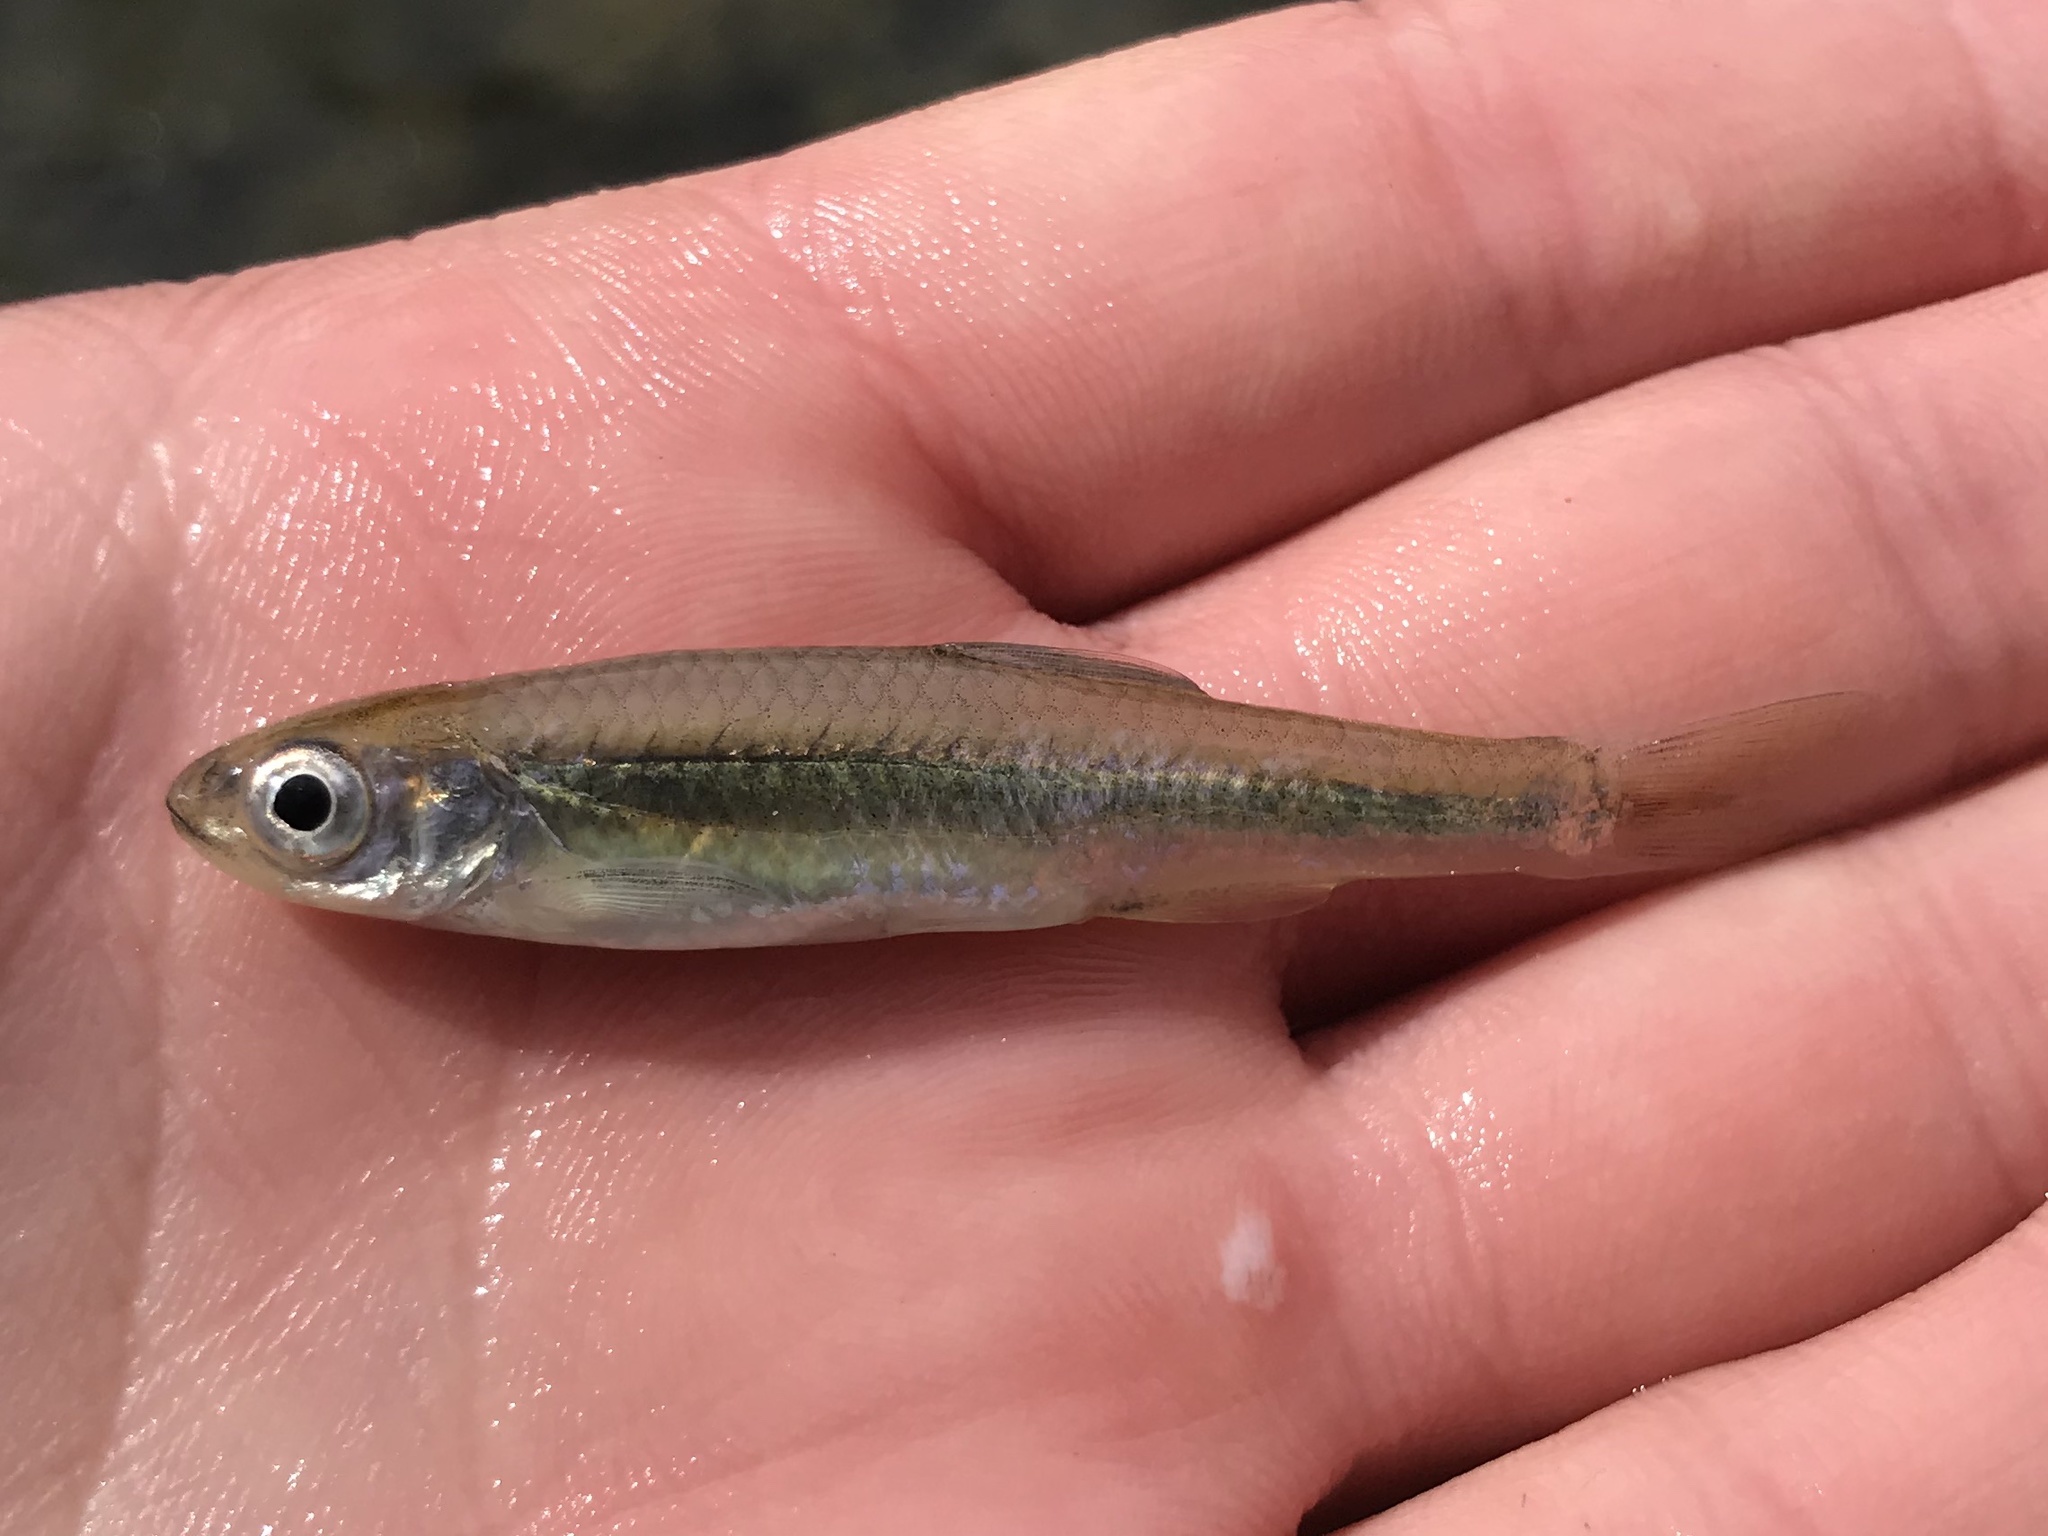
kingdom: Animalia
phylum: Chordata
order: Cypriniformes
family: Cyprinidae
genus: Notropis
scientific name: Notropis amabilis
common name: Texas shiner
